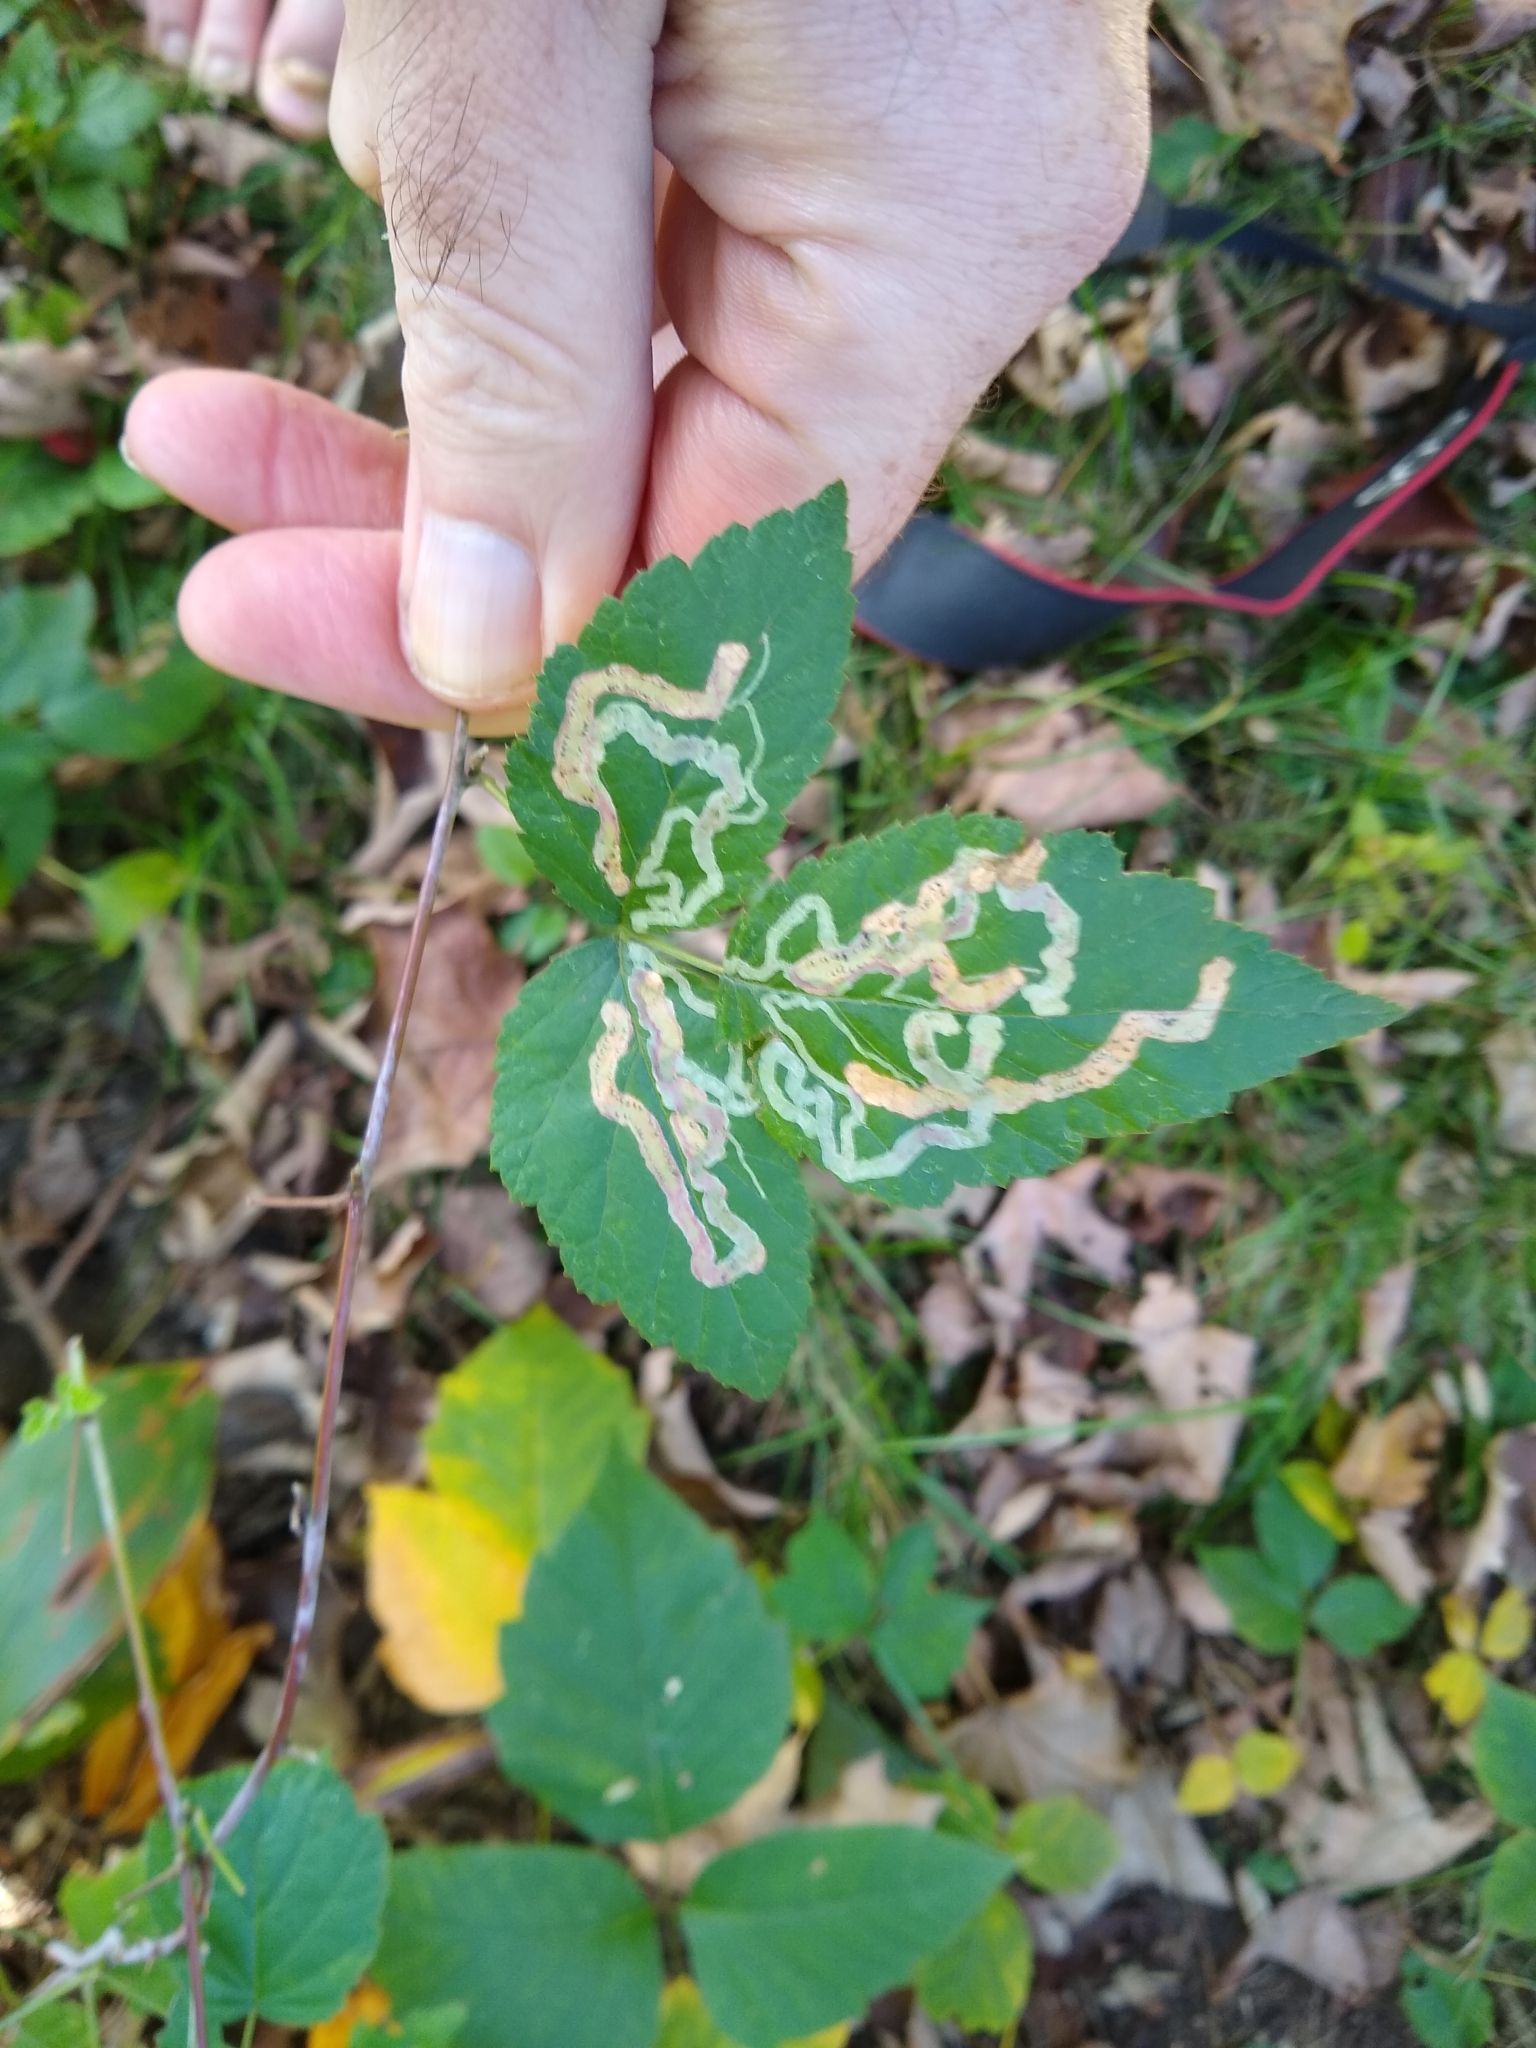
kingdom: Animalia
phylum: Arthropoda
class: Insecta
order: Diptera
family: Agromyzidae
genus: Agromyza
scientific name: Agromyza vockerothi
